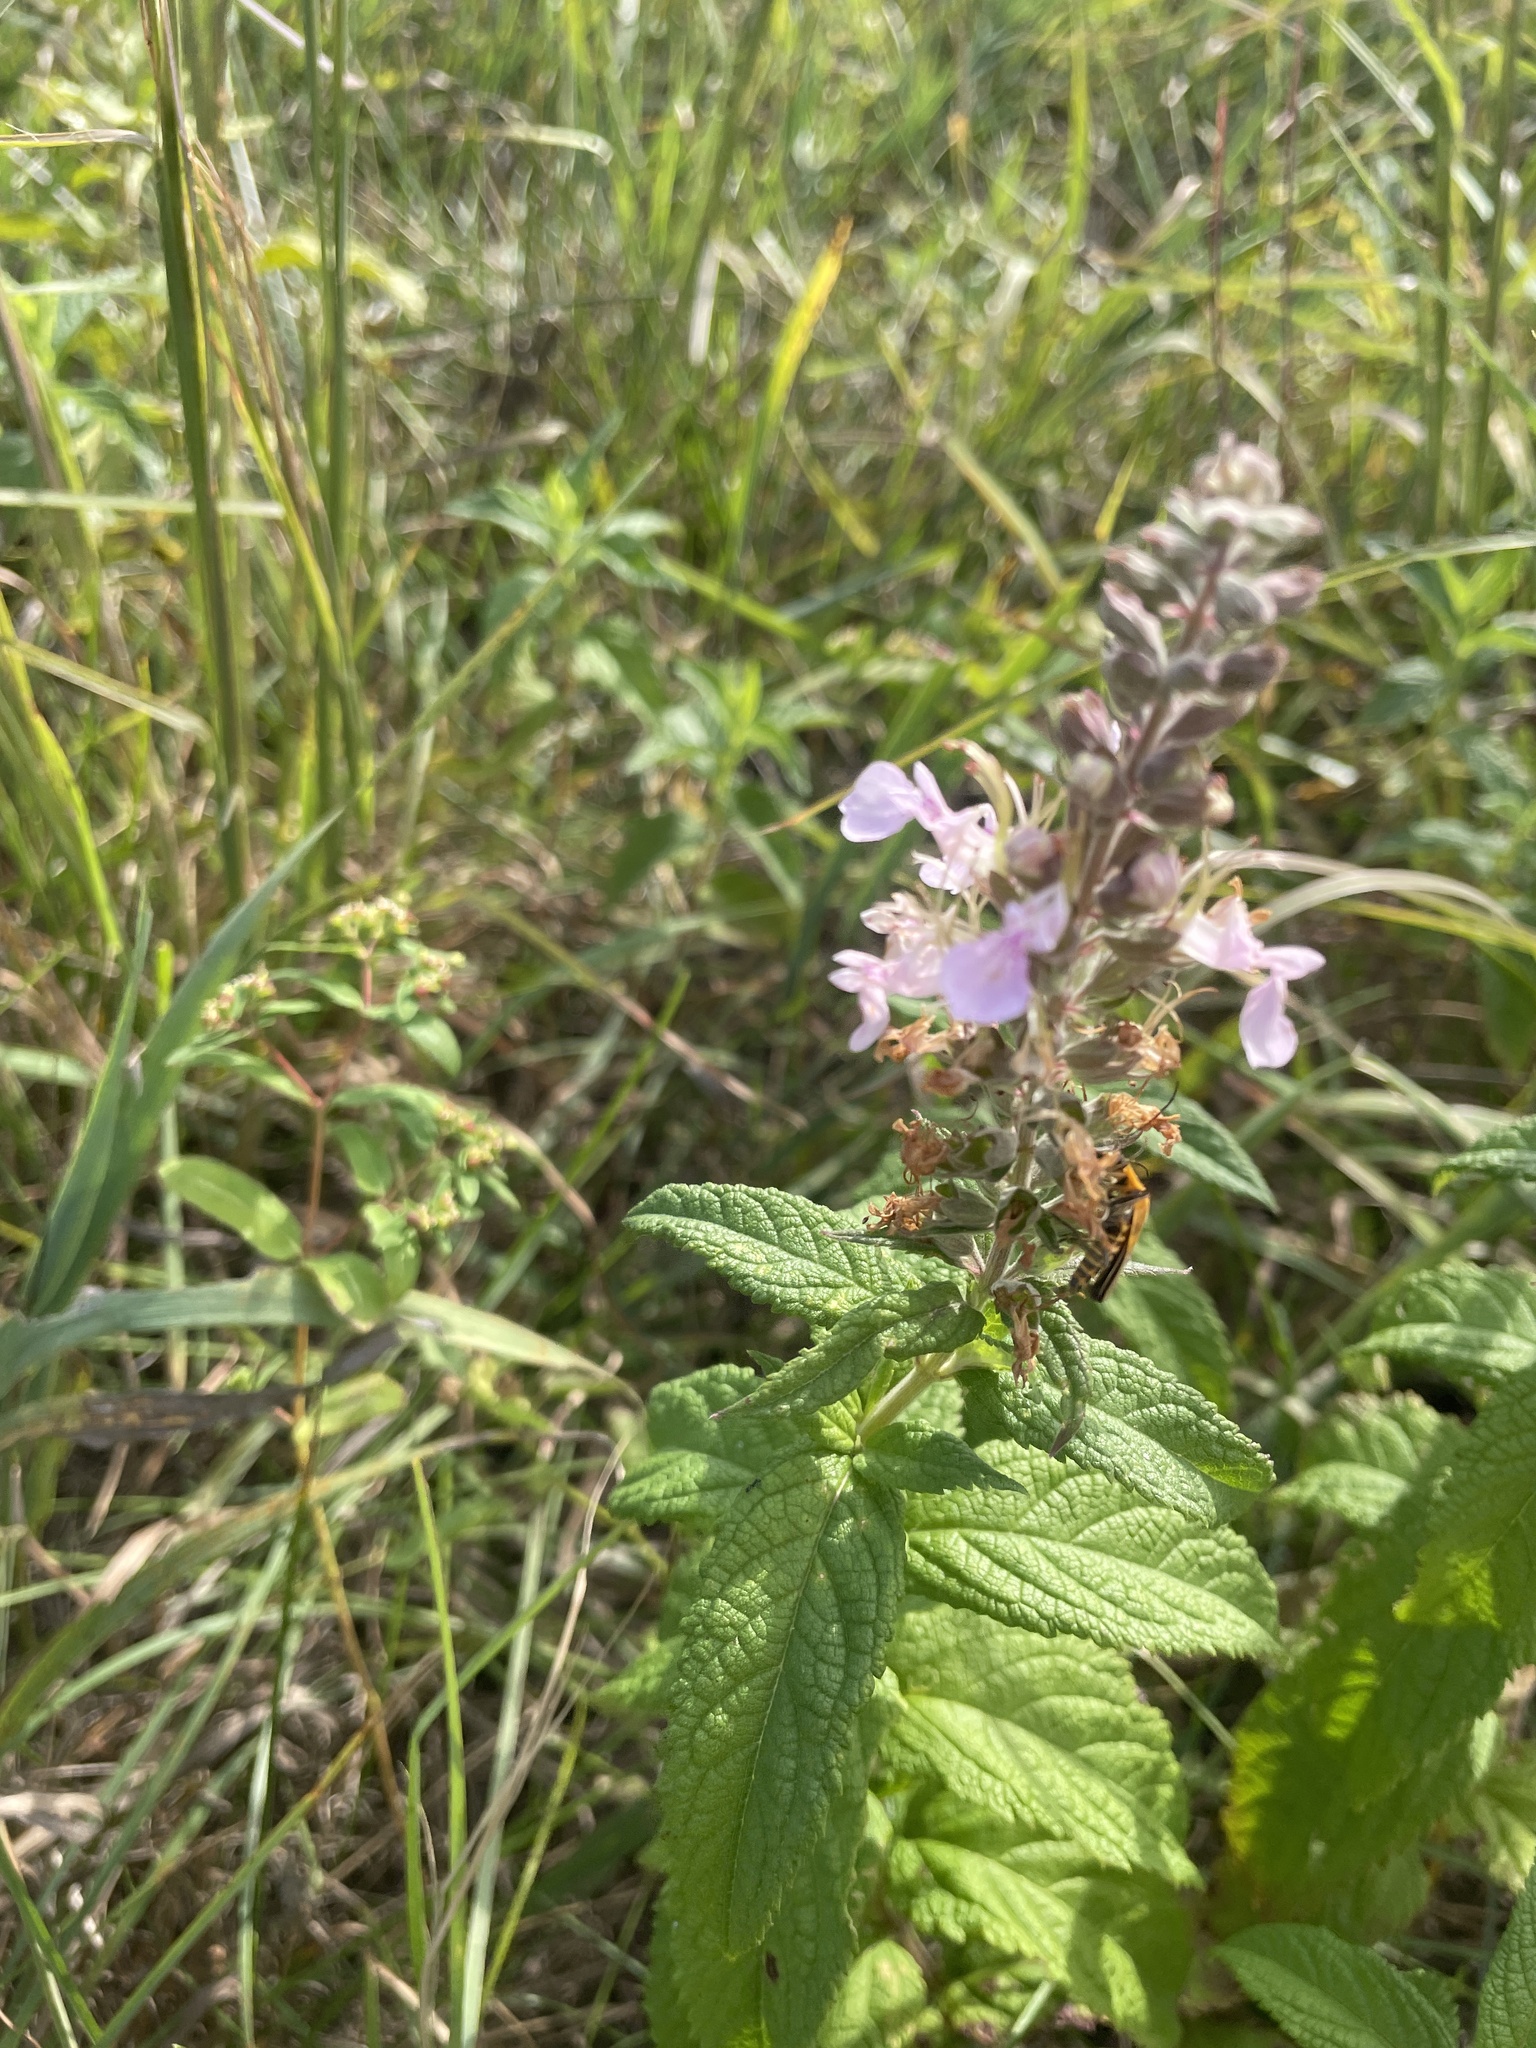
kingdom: Plantae
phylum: Tracheophyta
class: Magnoliopsida
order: Lamiales
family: Lamiaceae
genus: Teucrium
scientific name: Teucrium canadense
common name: American germander
